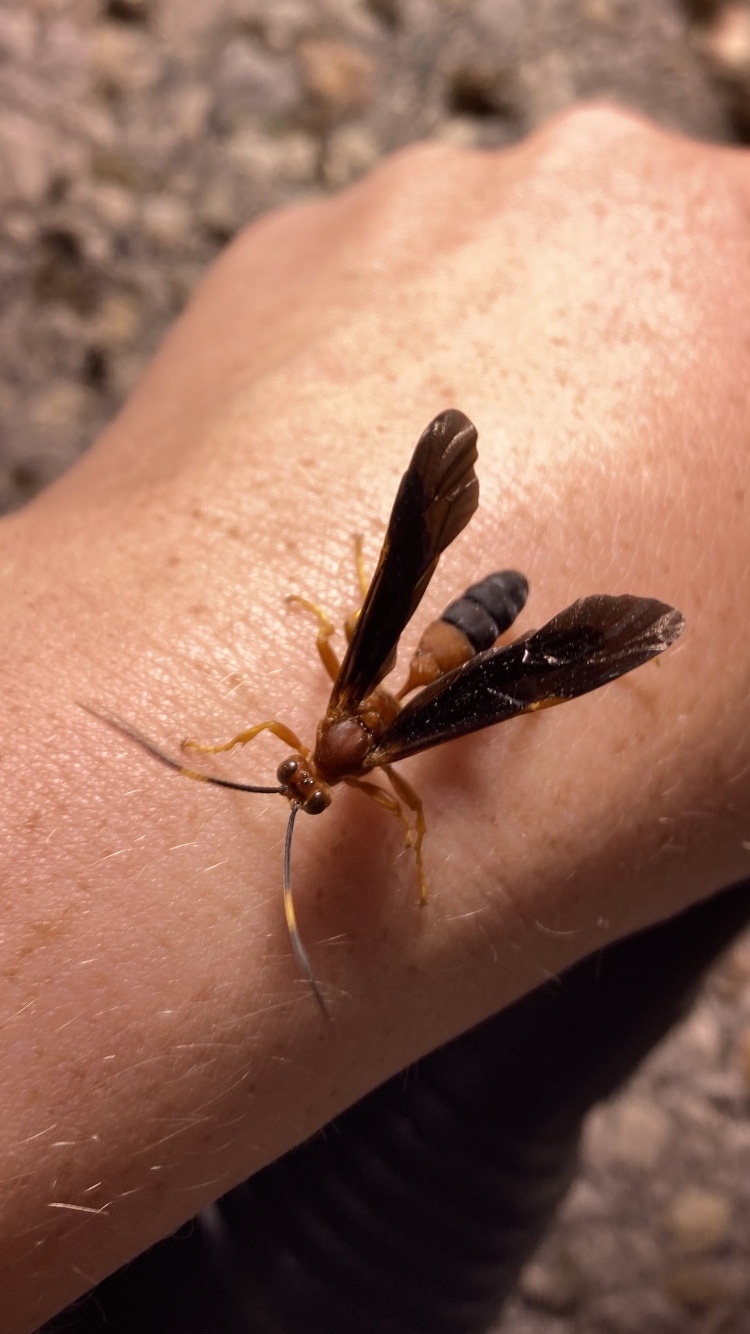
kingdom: Animalia
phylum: Arthropoda
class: Insecta
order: Hymenoptera
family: Ichneumonidae
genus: Tmetogaster
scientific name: Tmetogaster nubilipennis
